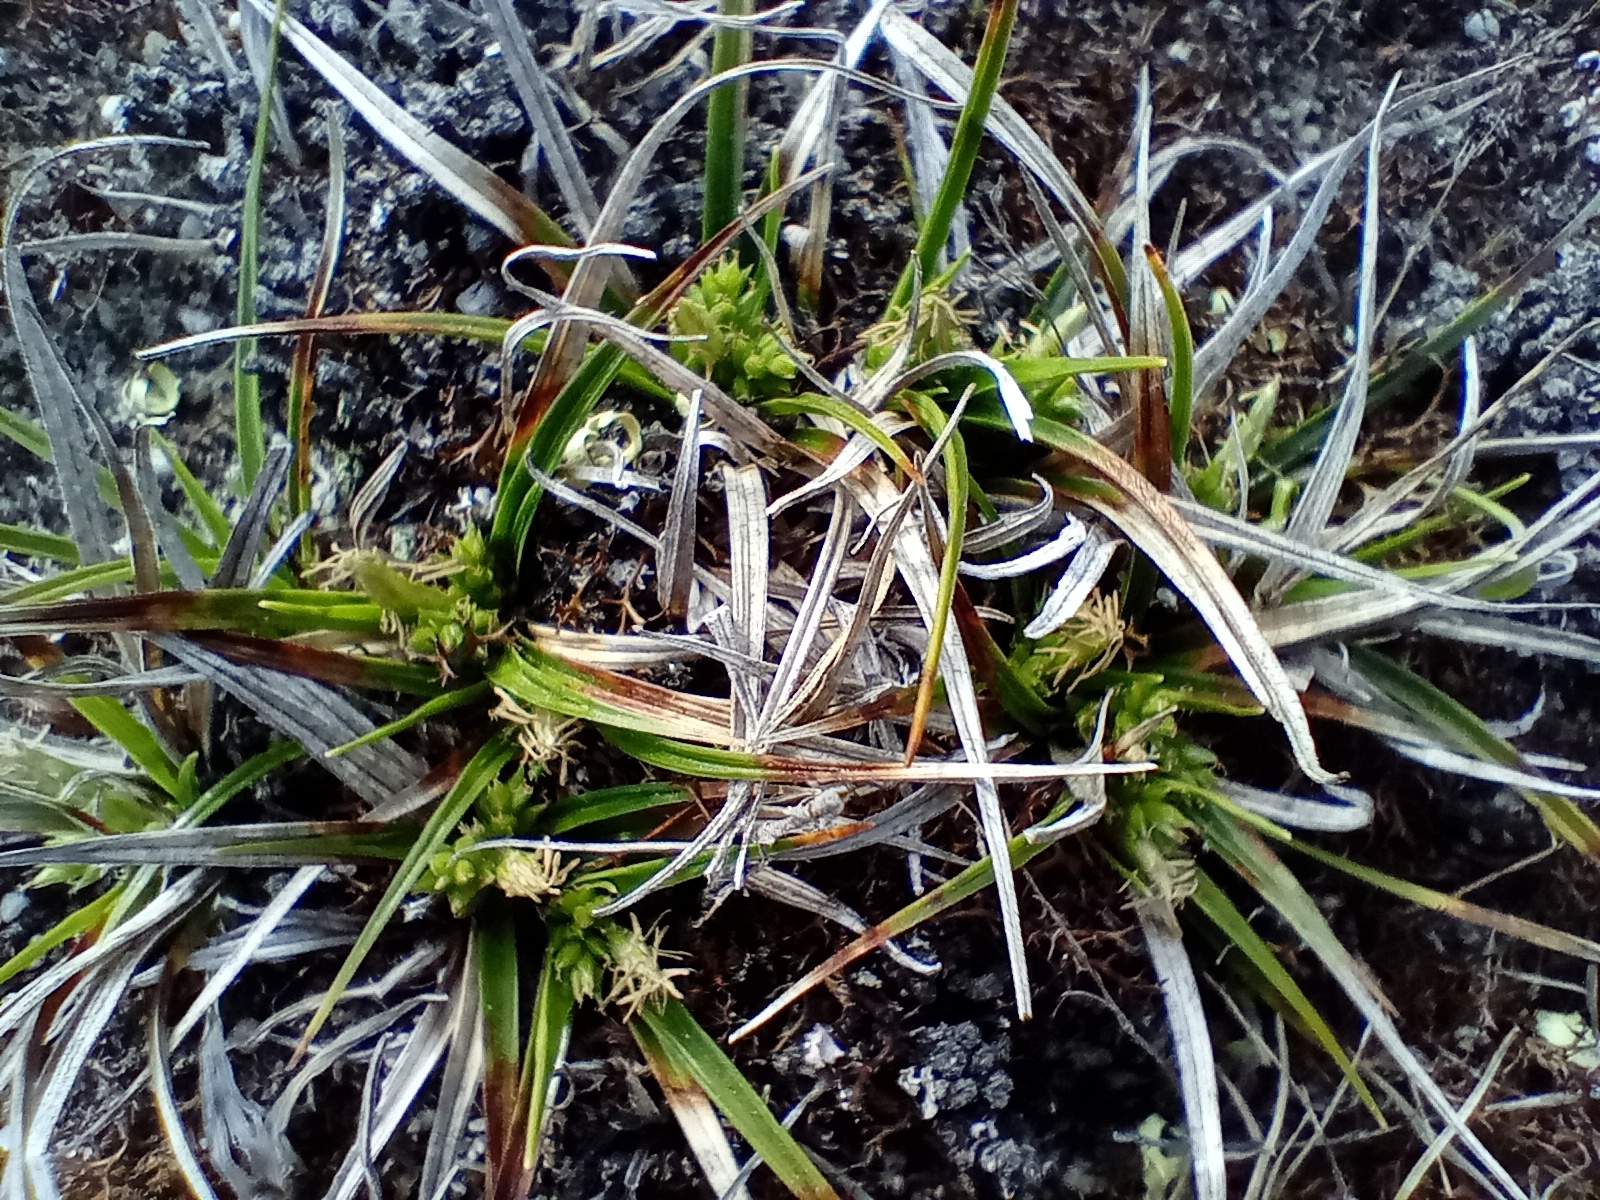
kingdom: Plantae
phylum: Tracheophyta
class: Liliopsida
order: Poales
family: Cyperaceae
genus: Carex
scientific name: Carex breviculmis
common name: Asian shortstem sedge
